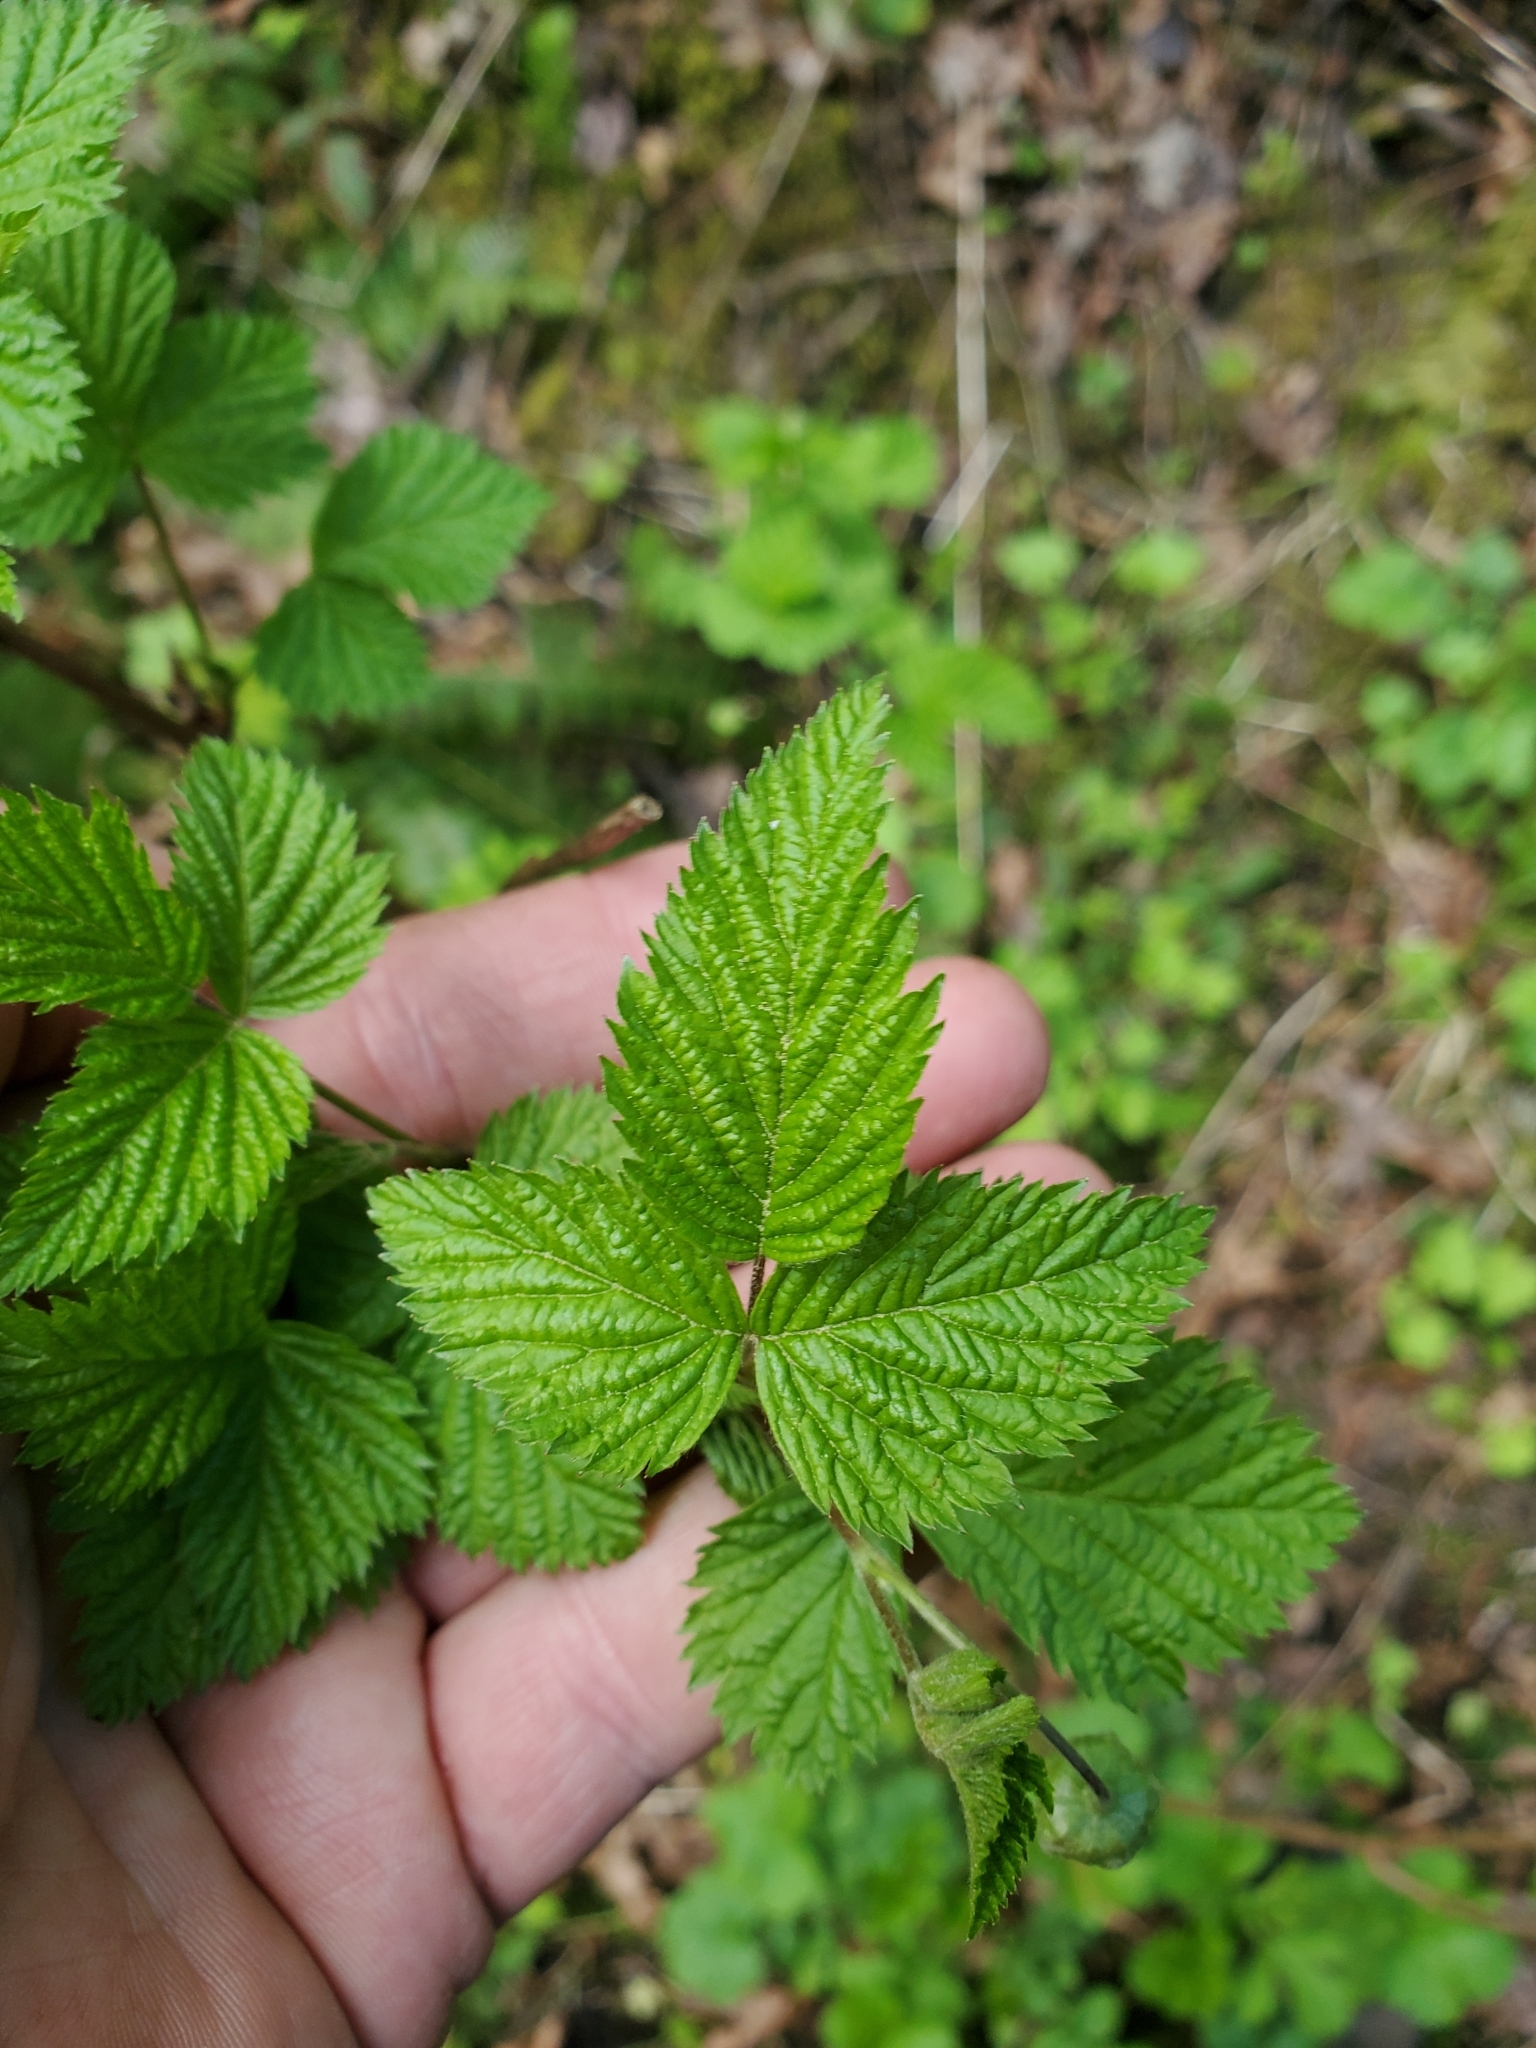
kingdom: Plantae
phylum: Tracheophyta
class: Magnoliopsida
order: Rosales
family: Rosaceae
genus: Rubus
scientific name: Rubus spectabilis
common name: Salmonberry
